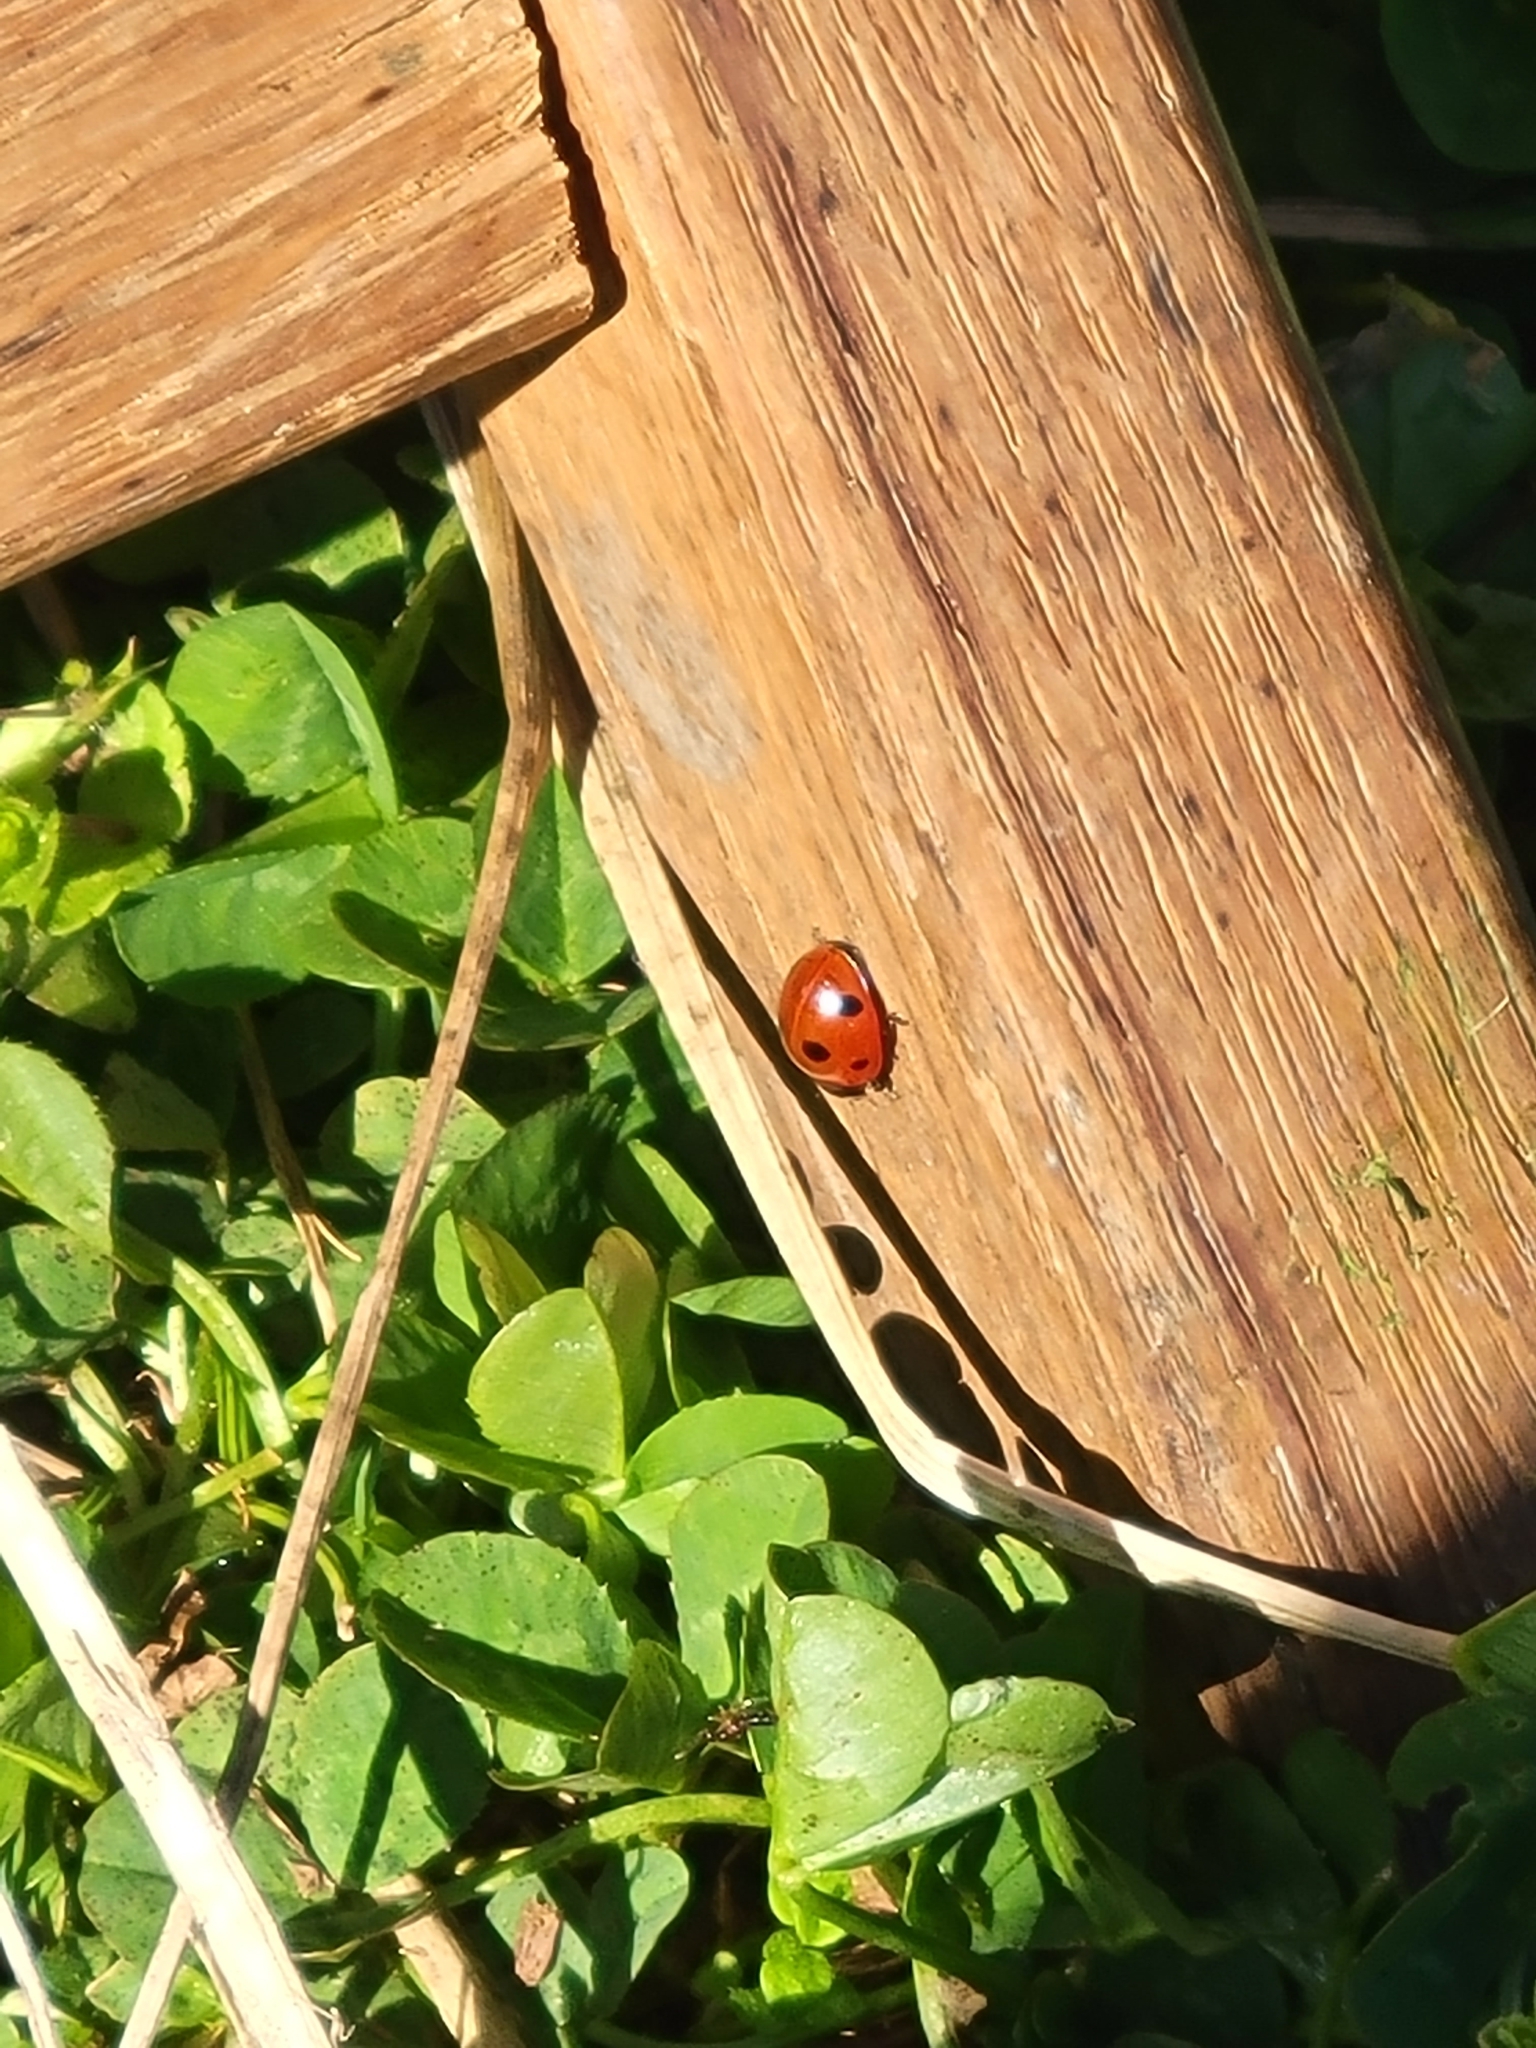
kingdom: Animalia
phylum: Arthropoda
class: Insecta
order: Coleoptera
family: Coccinellidae
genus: Coccinella
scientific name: Coccinella septempunctata
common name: Sevenspotted lady beetle
